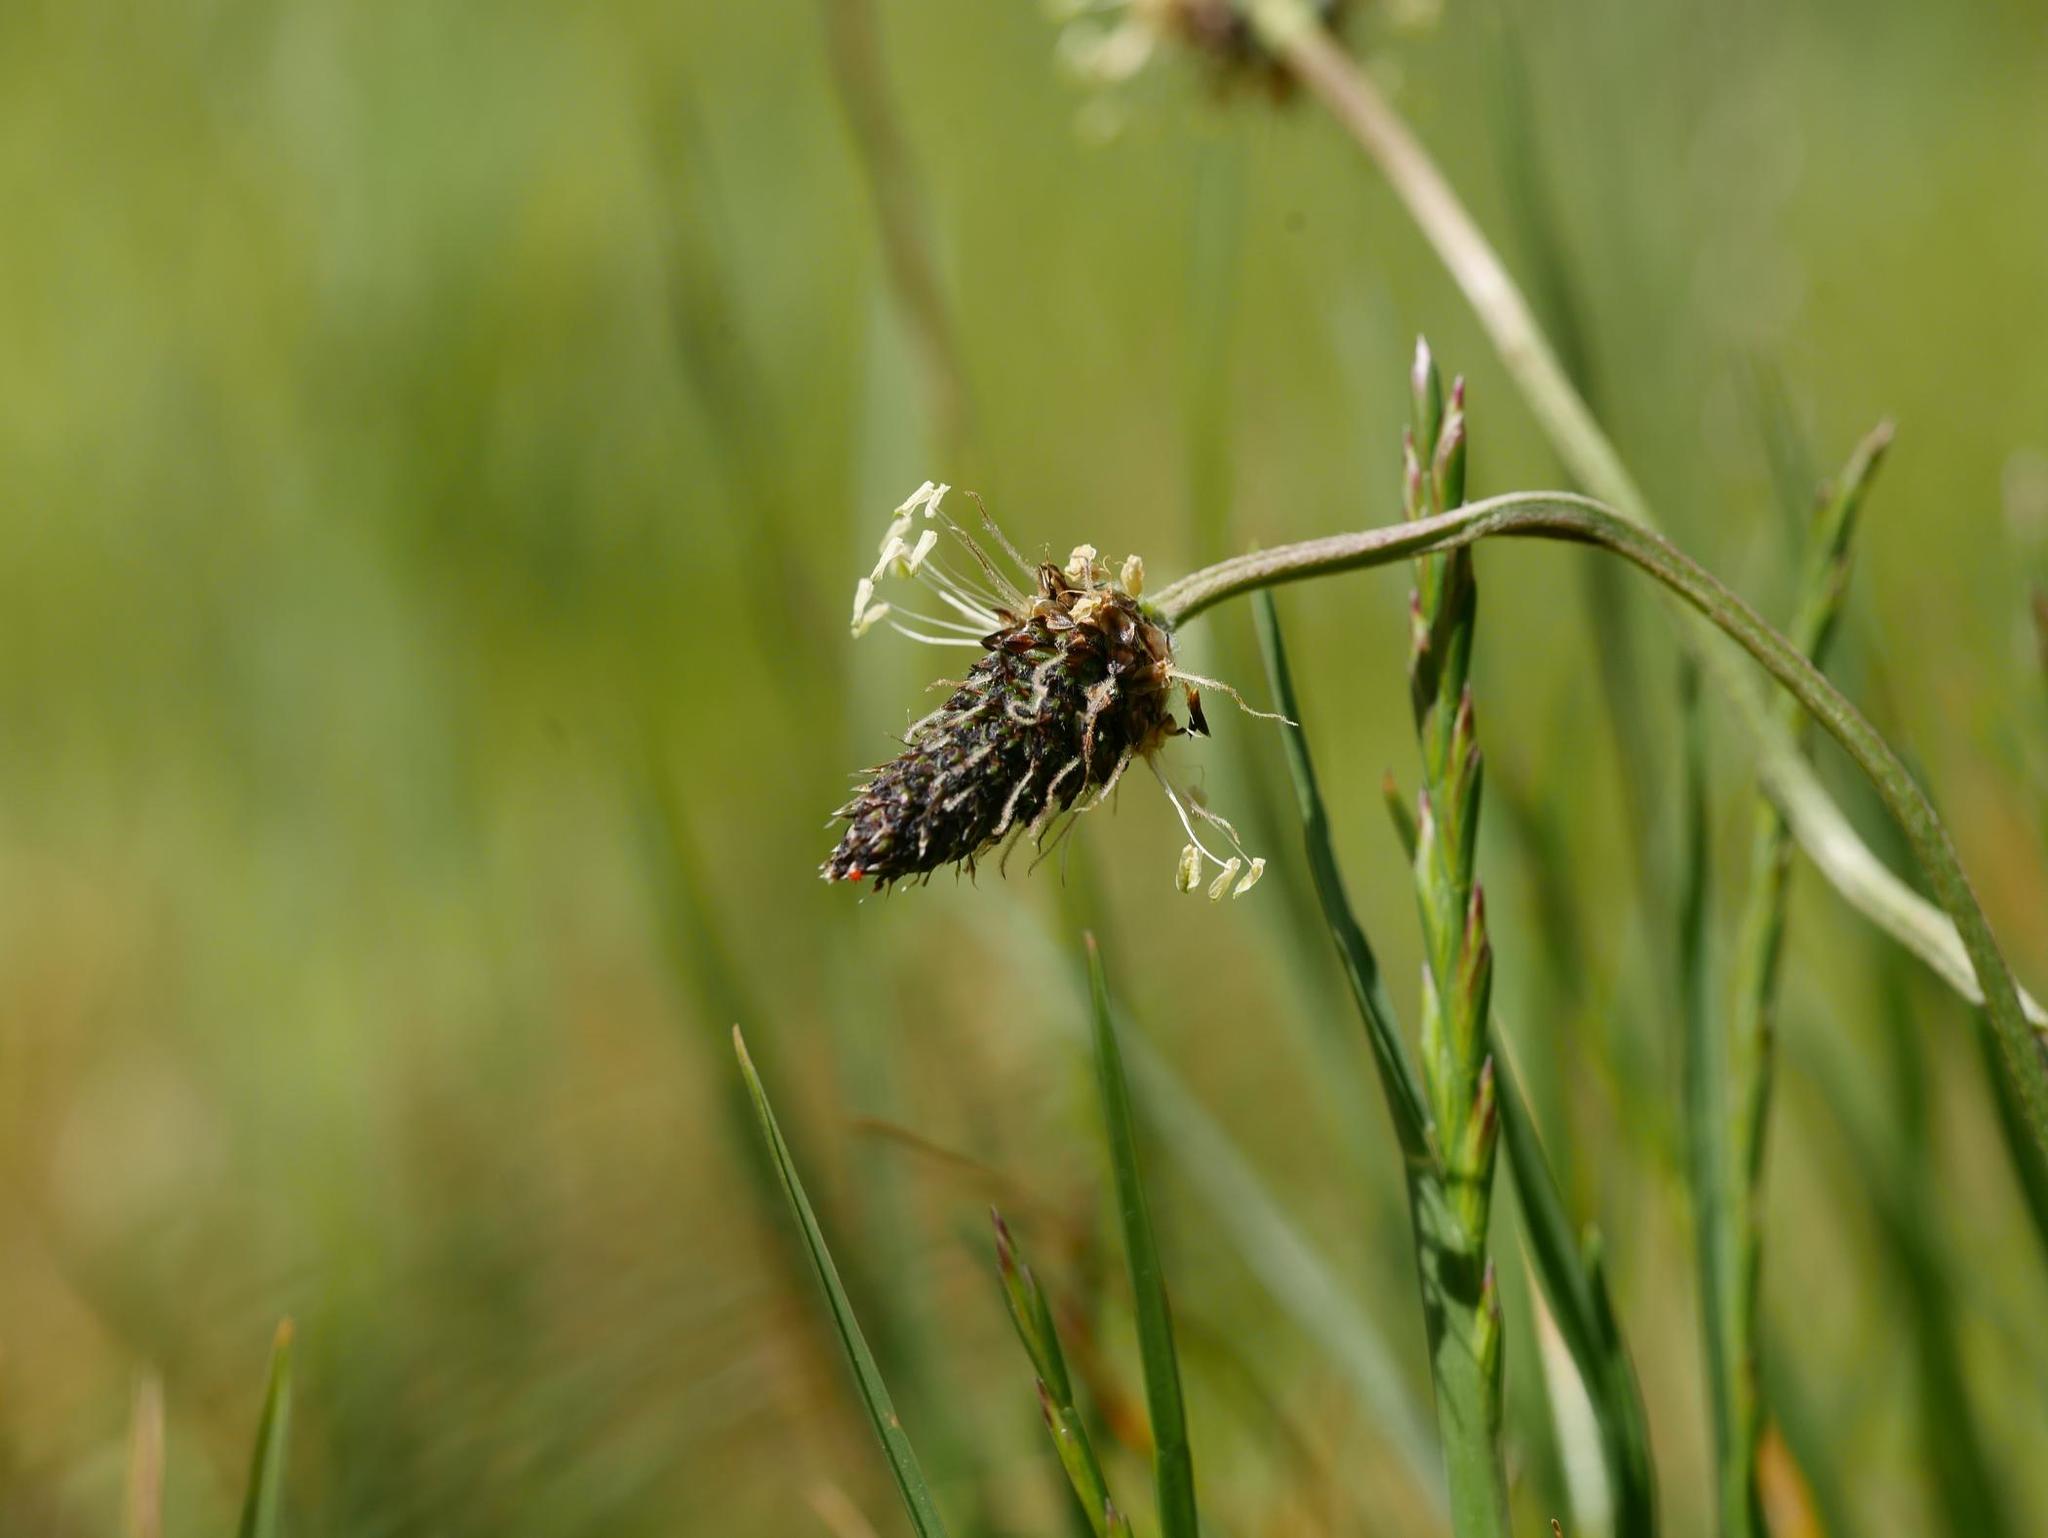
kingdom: Plantae
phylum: Tracheophyta
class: Magnoliopsida
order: Lamiales
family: Plantaginaceae
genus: Plantago
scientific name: Plantago lanceolata
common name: Ribwort plantain
